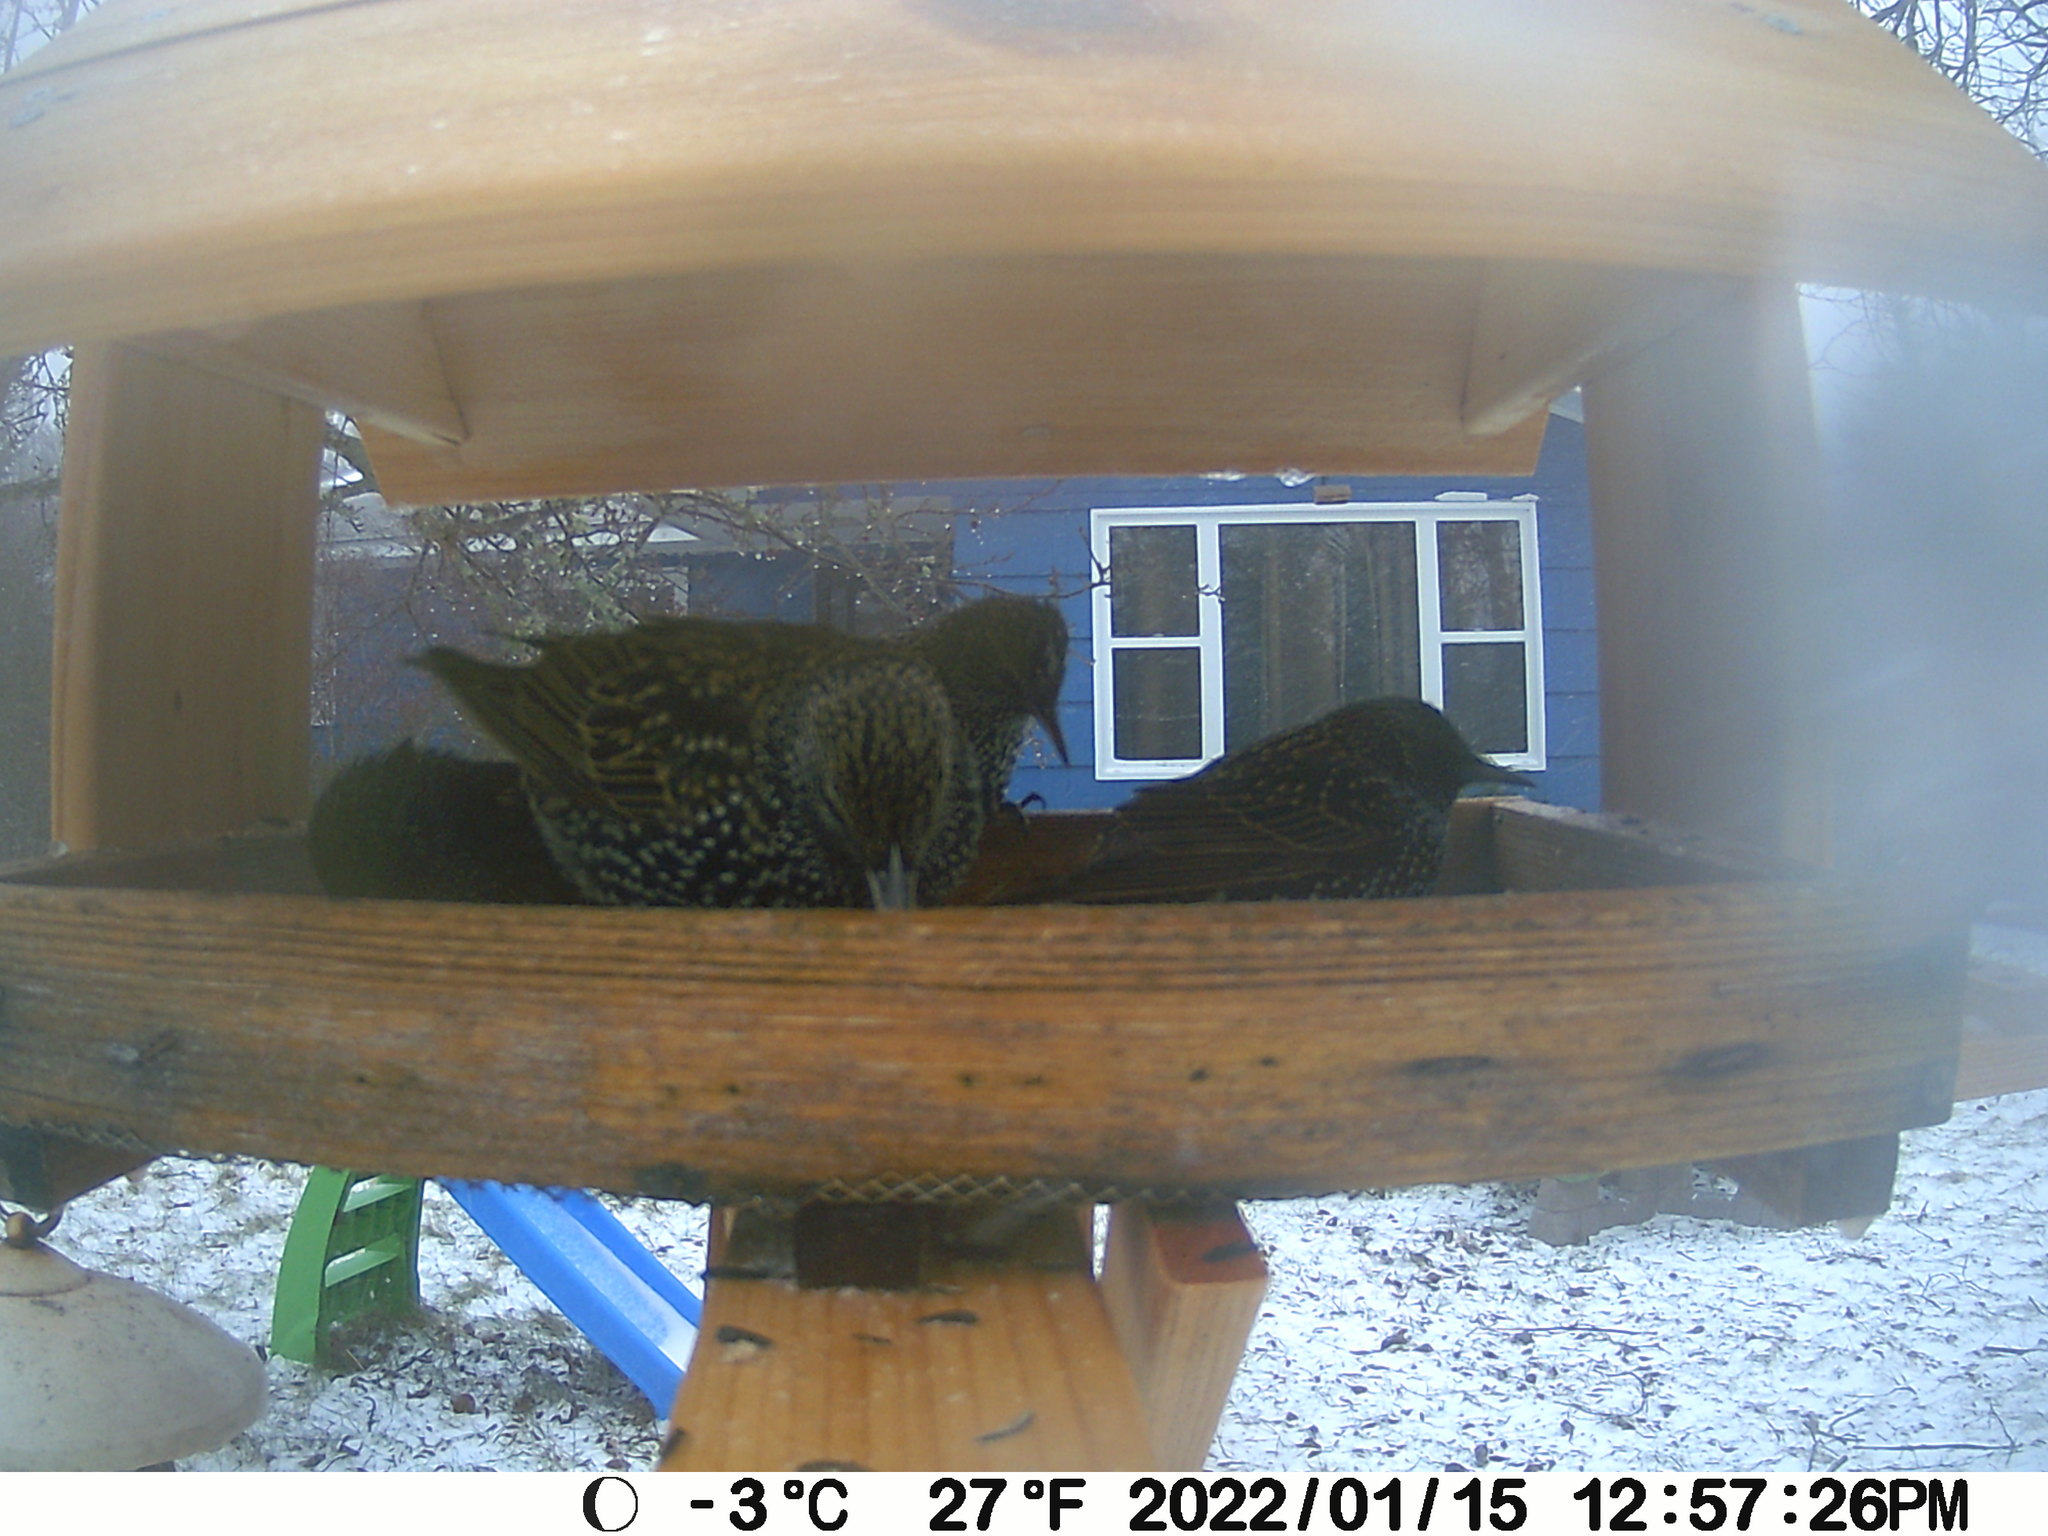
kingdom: Animalia
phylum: Chordata
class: Aves
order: Passeriformes
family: Sturnidae
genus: Sturnus
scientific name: Sturnus vulgaris
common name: Common starling
